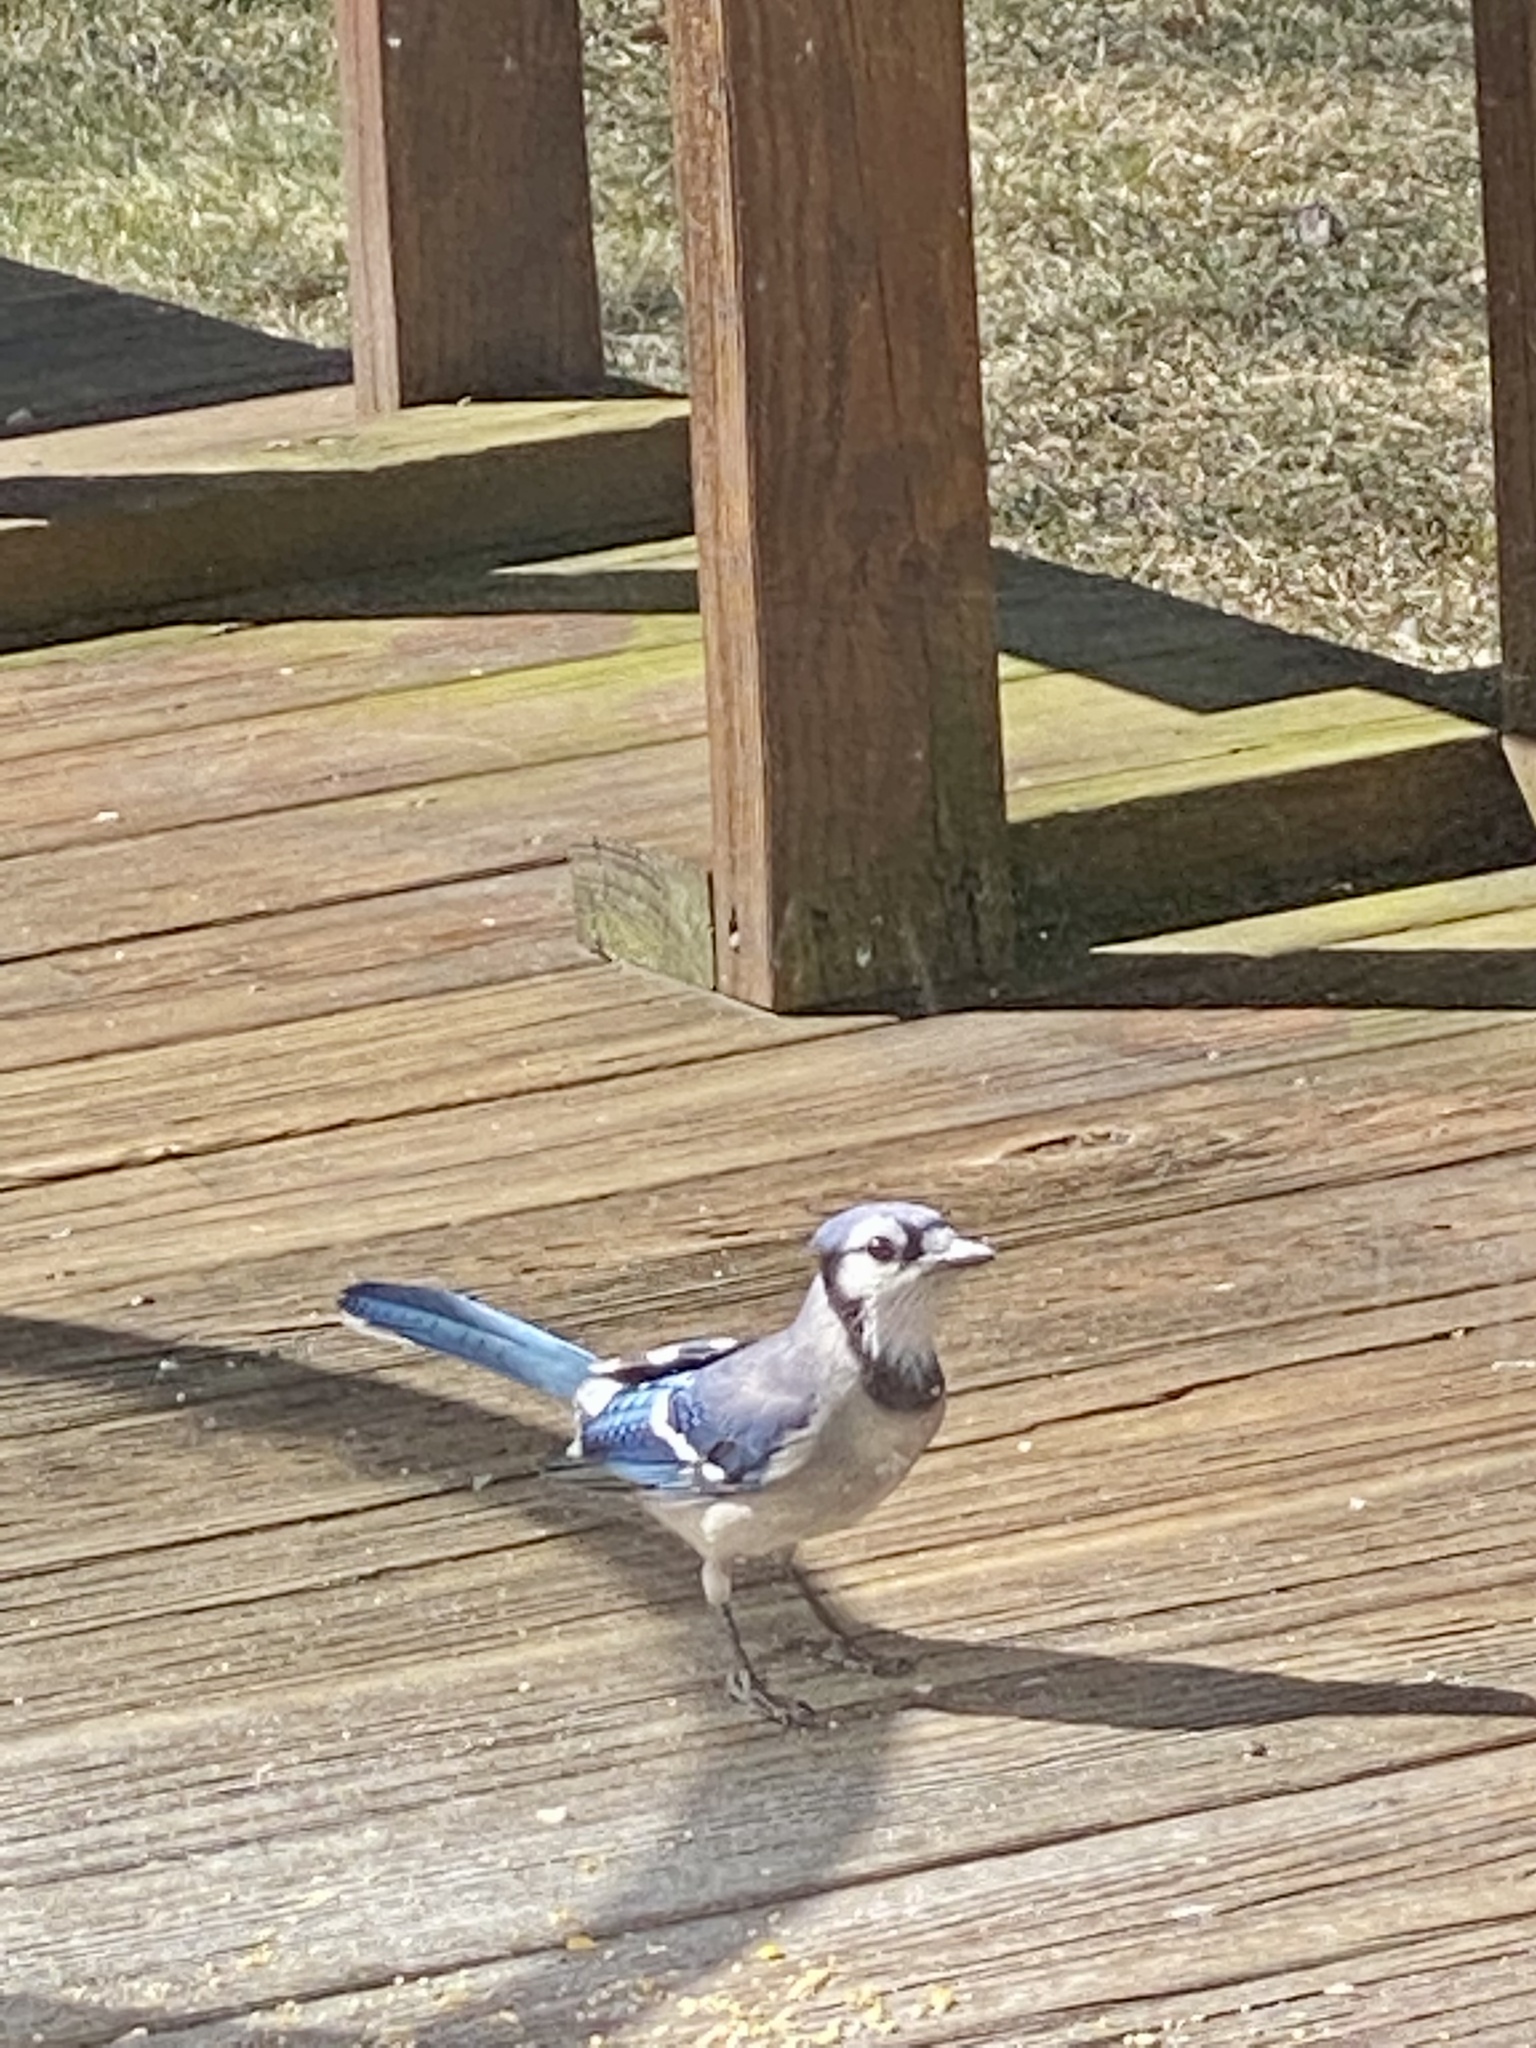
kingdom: Animalia
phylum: Chordata
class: Aves
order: Passeriformes
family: Corvidae
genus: Cyanocitta
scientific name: Cyanocitta cristata
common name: Blue jay
